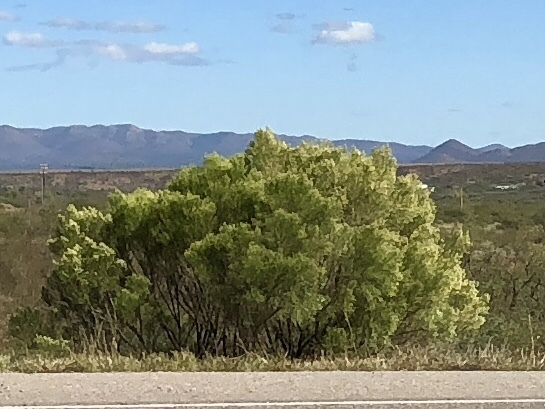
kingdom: Plantae
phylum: Tracheophyta
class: Magnoliopsida
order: Asterales
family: Asteraceae
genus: Baccharis
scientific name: Baccharis sarothroides
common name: Desert-broom
